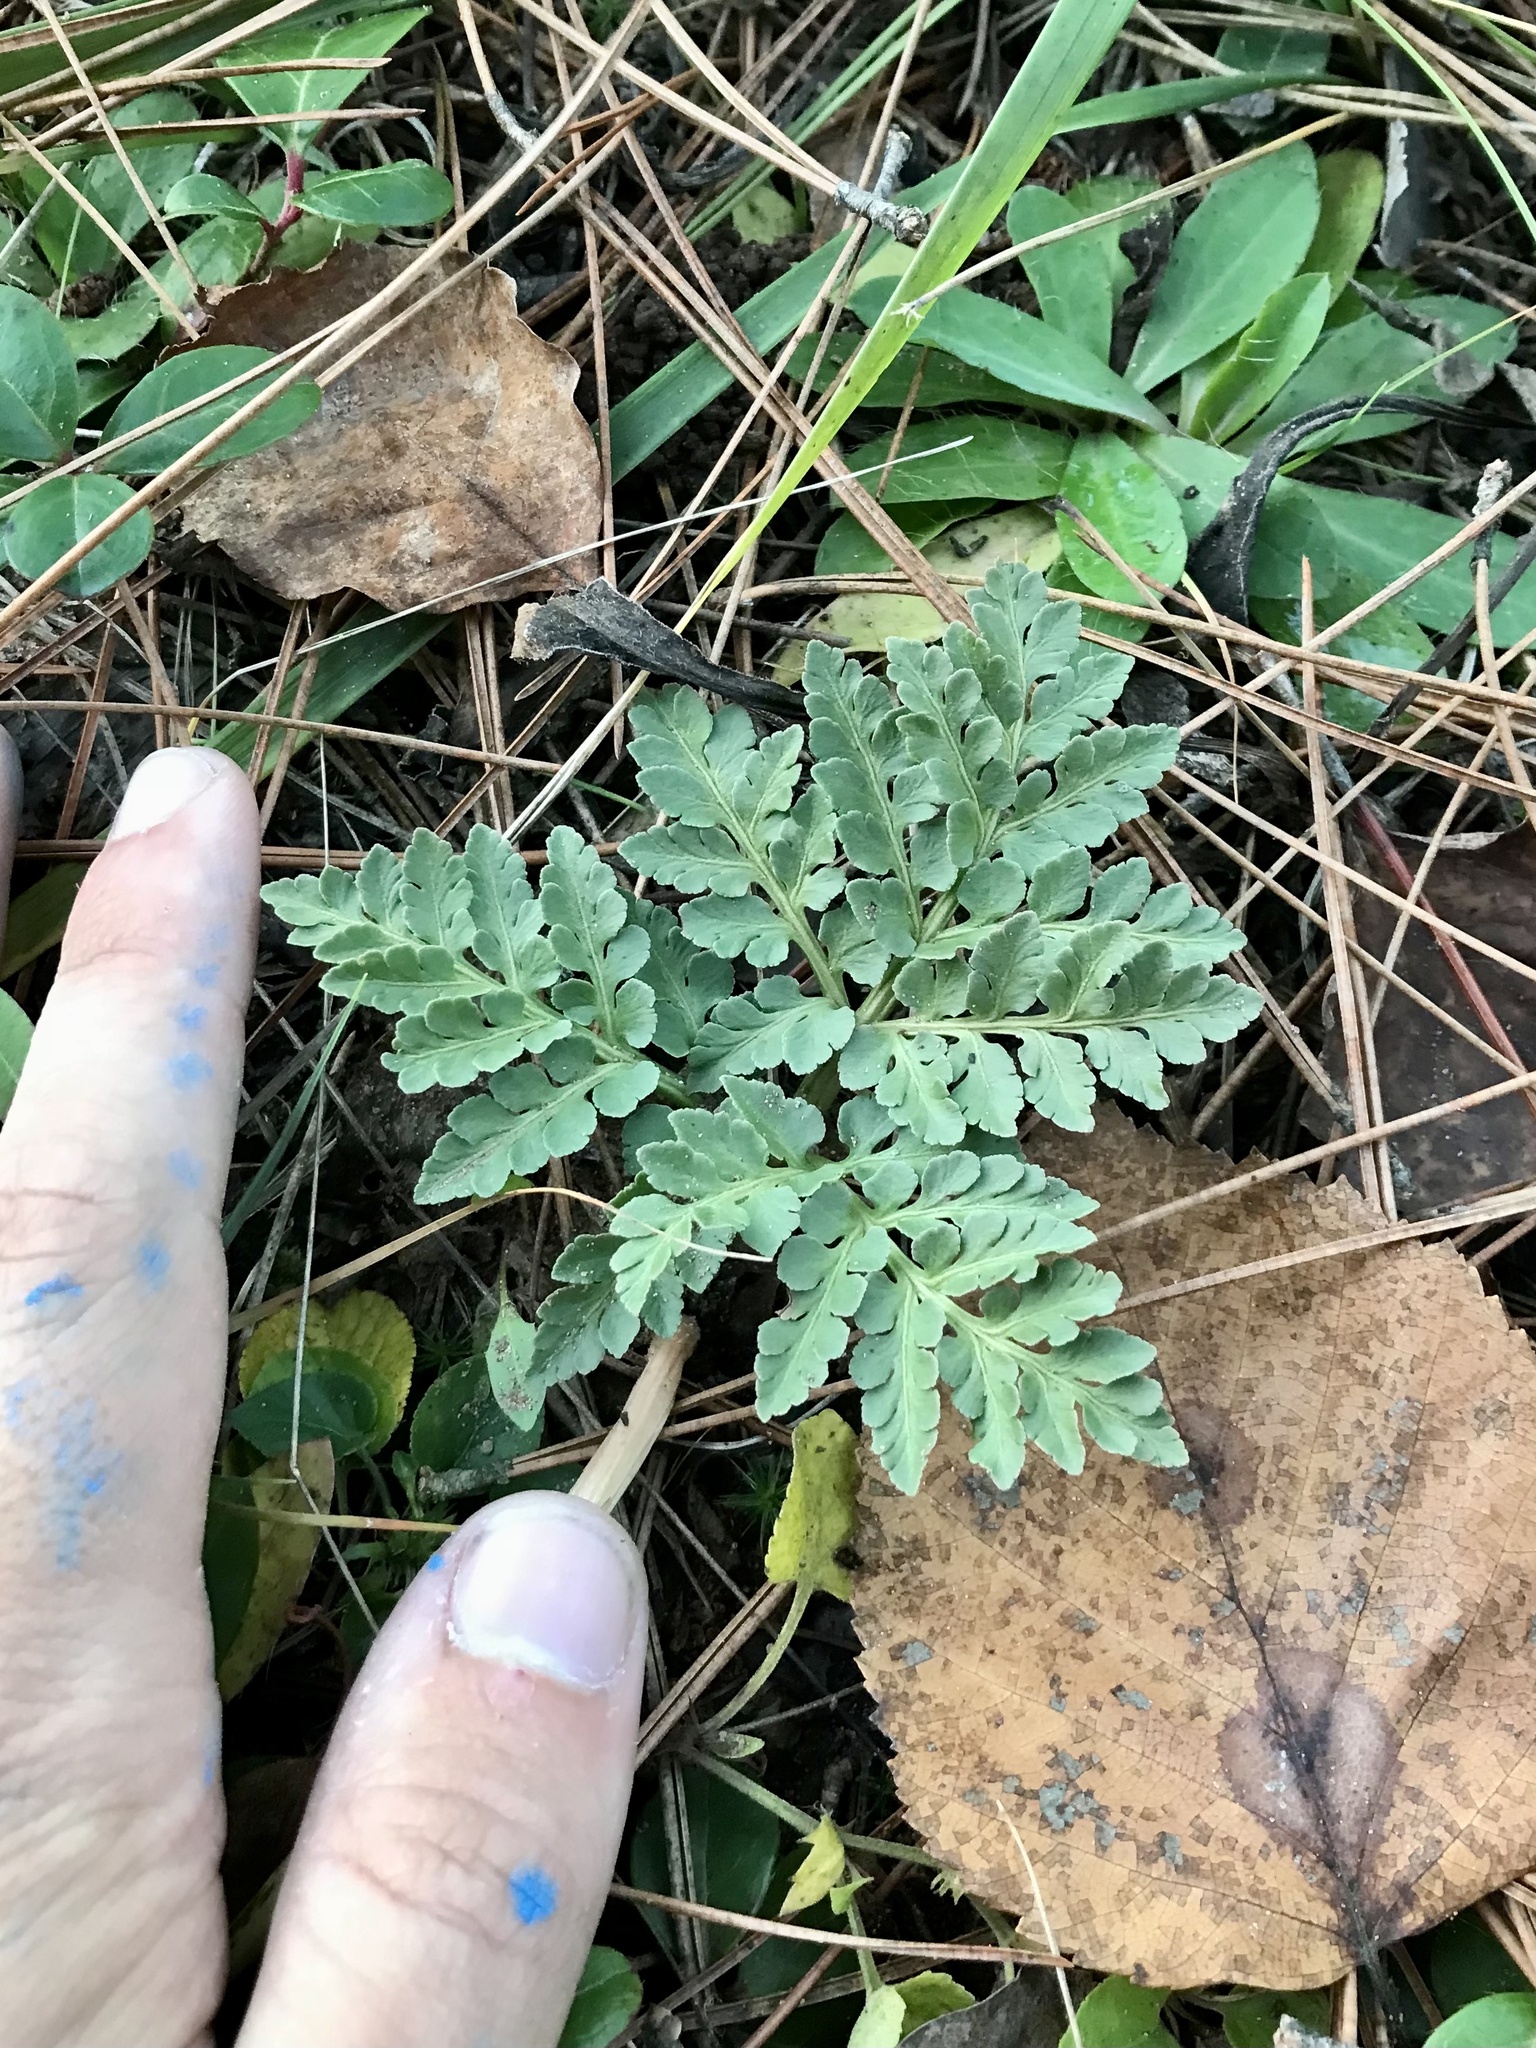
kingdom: Plantae
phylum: Tracheophyta
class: Polypodiopsida
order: Ophioglossales
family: Ophioglossaceae
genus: Sceptridium
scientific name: Sceptridium multifidum
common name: Leathery grape fern
